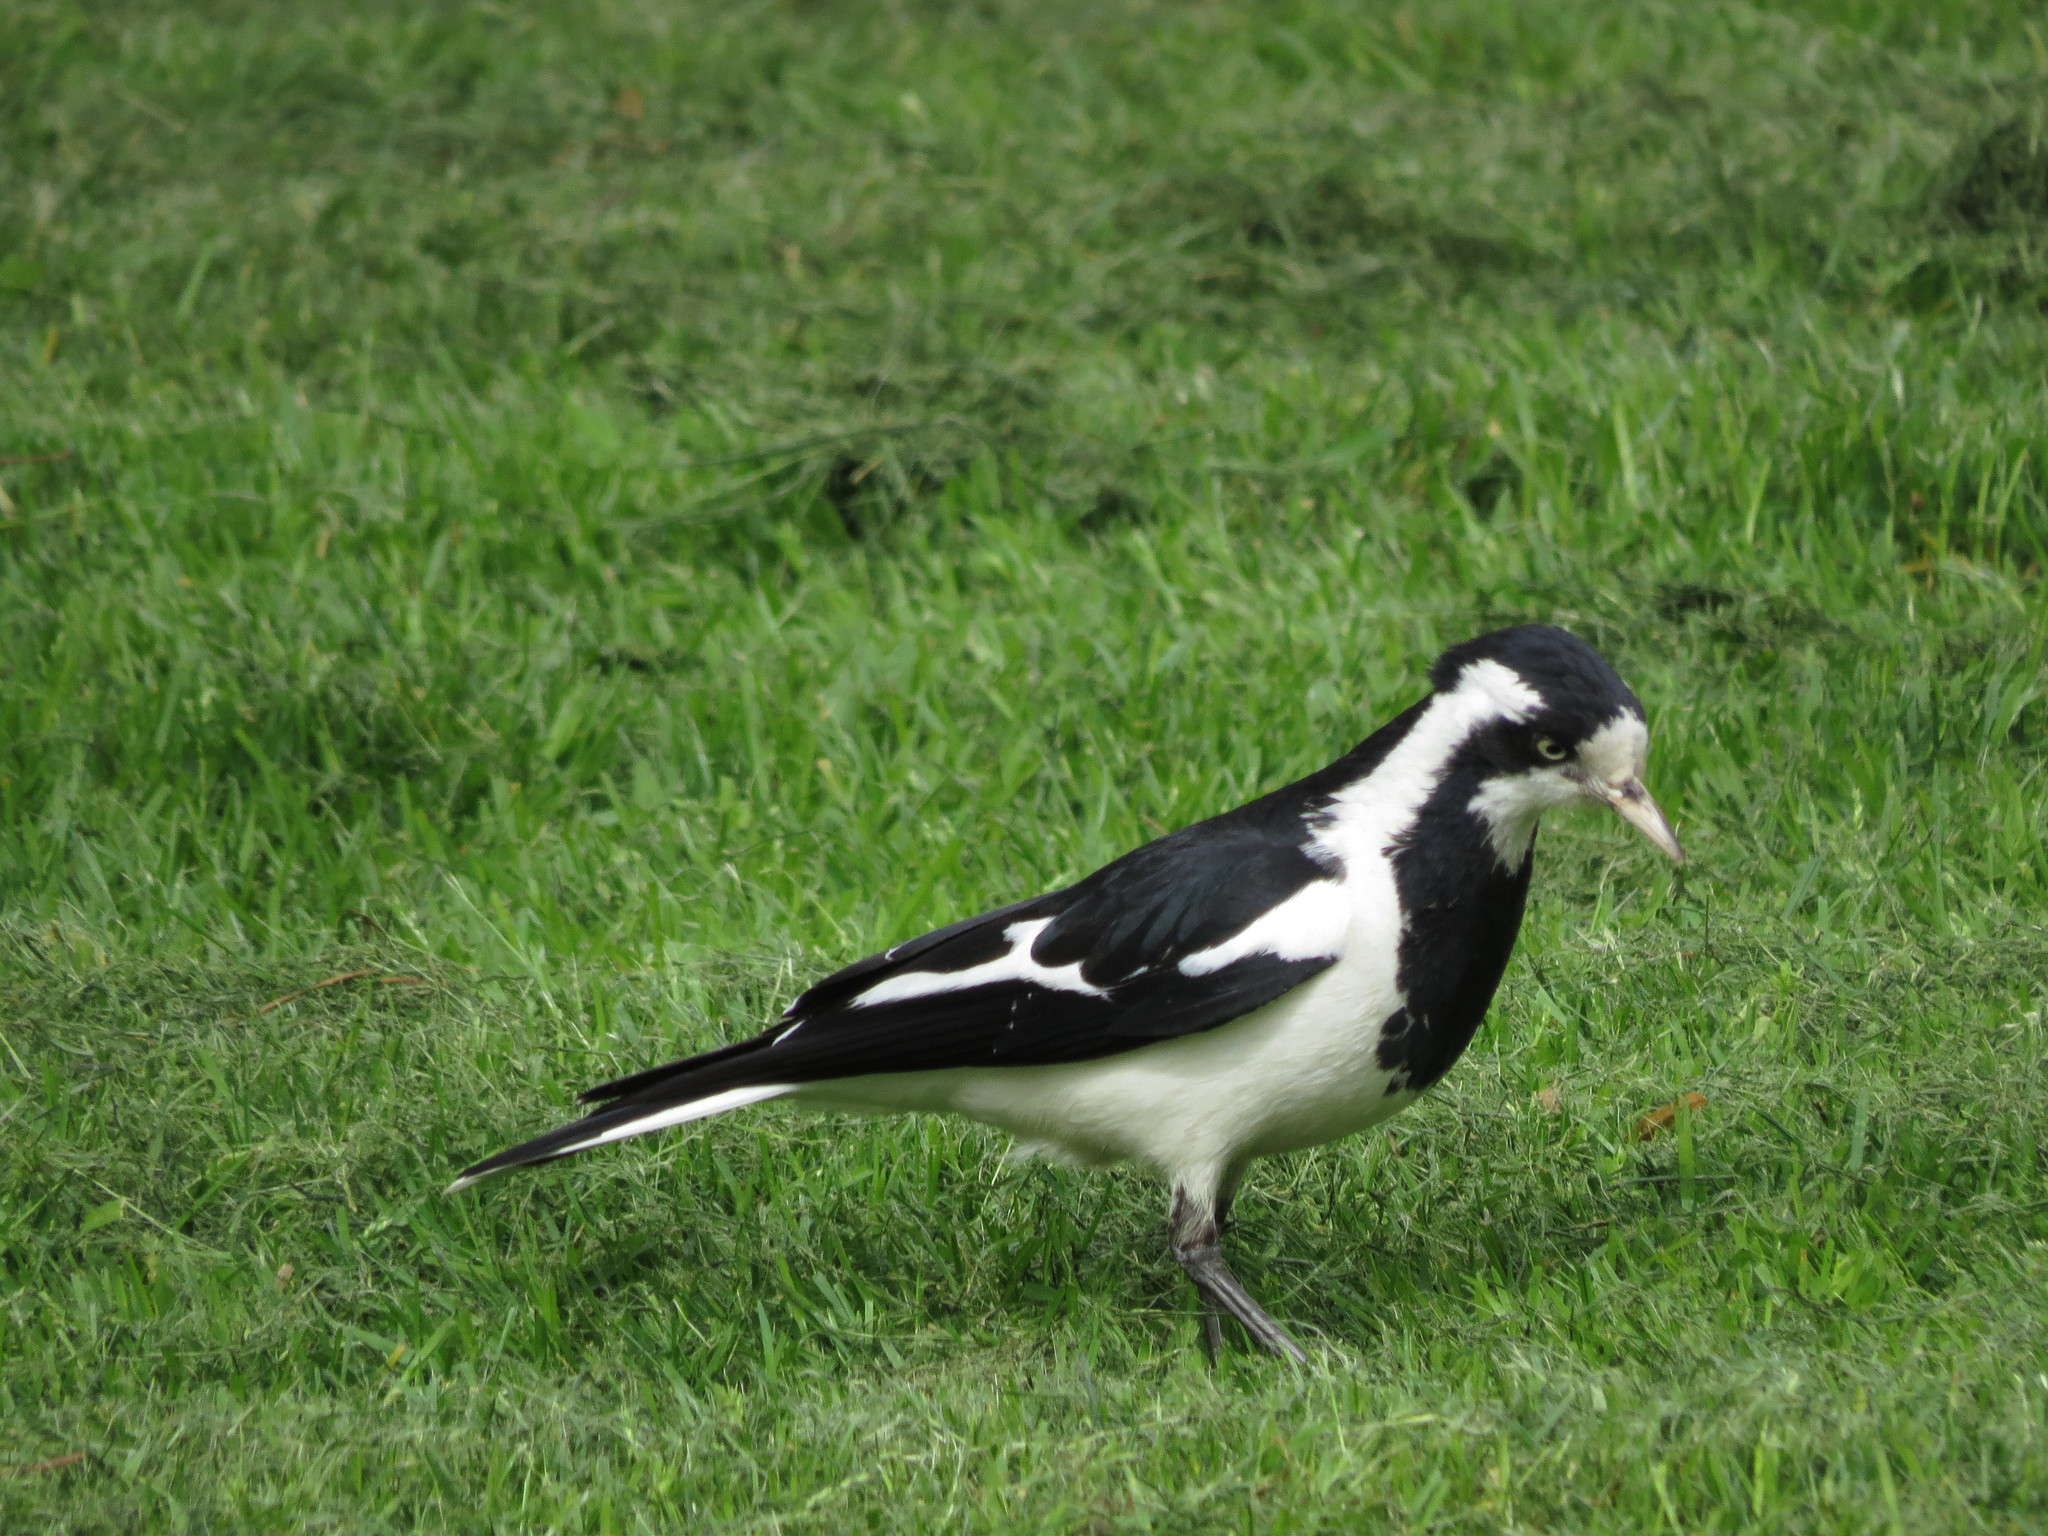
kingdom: Animalia
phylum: Chordata
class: Aves
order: Passeriformes
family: Monarchidae
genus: Grallina
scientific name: Grallina cyanoleuca
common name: Magpie-lark
